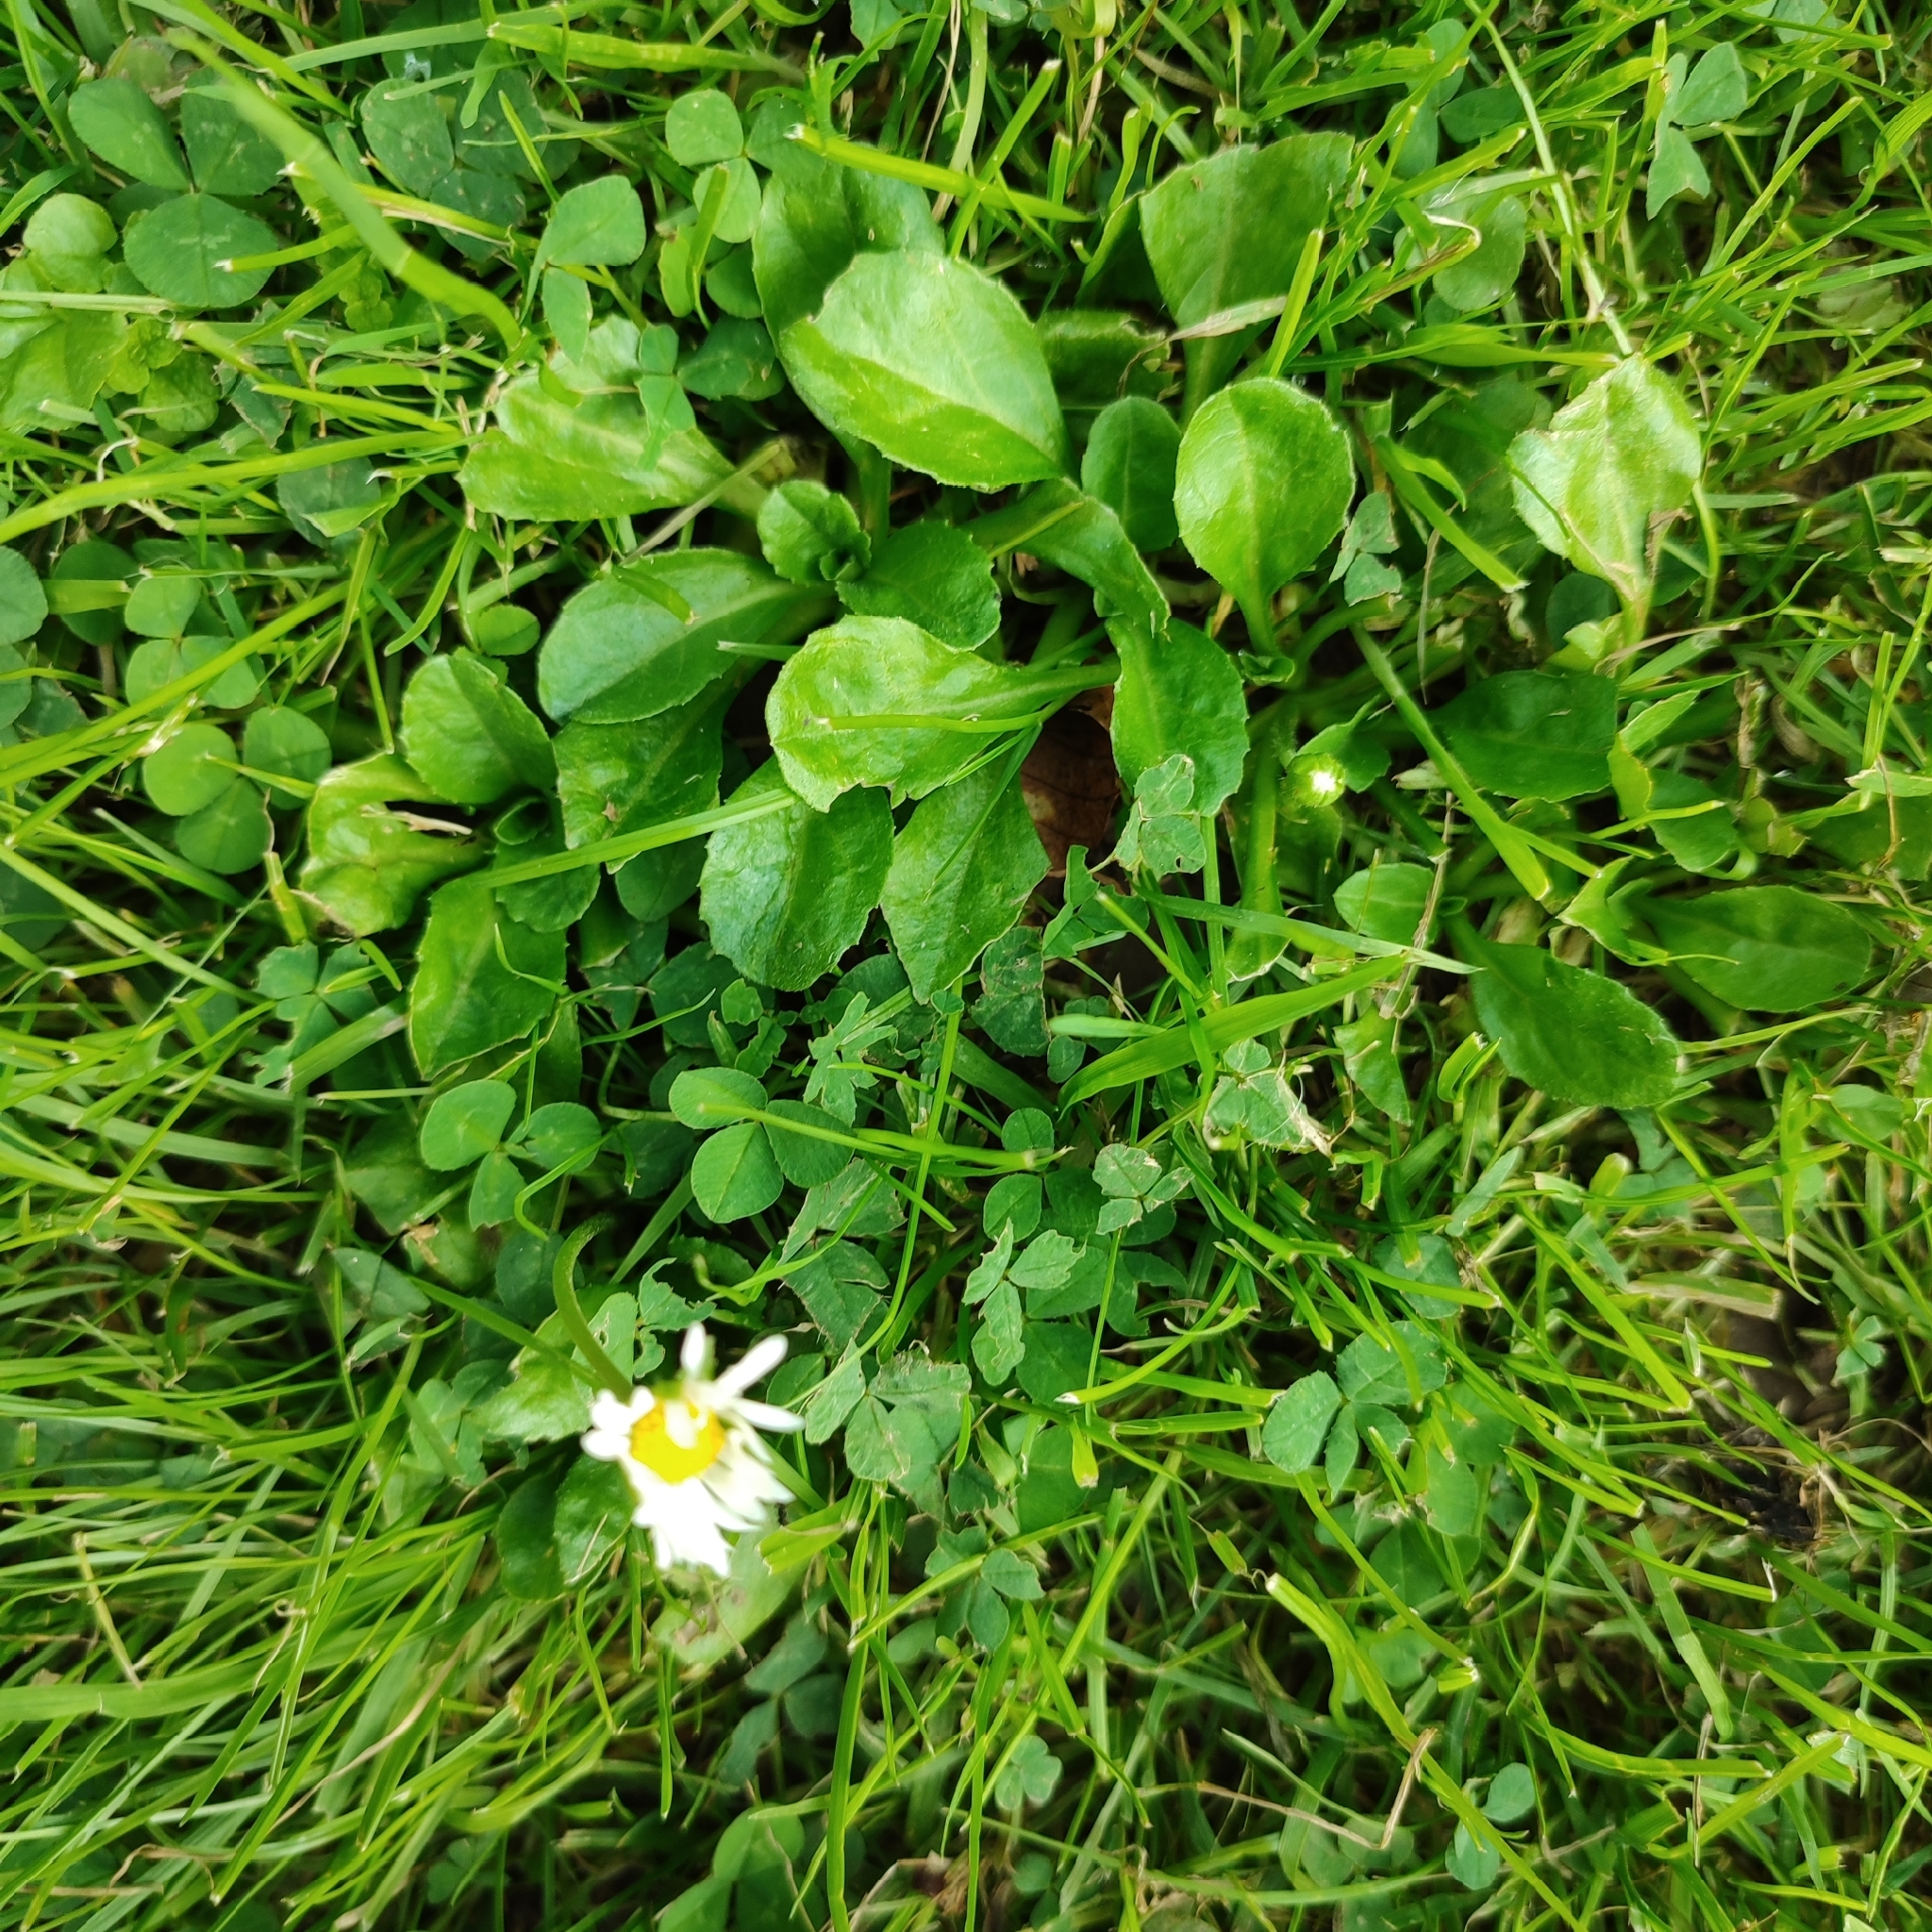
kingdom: Plantae
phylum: Tracheophyta
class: Magnoliopsida
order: Asterales
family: Asteraceae
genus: Bellis
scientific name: Bellis perennis
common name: Lawndaisy
